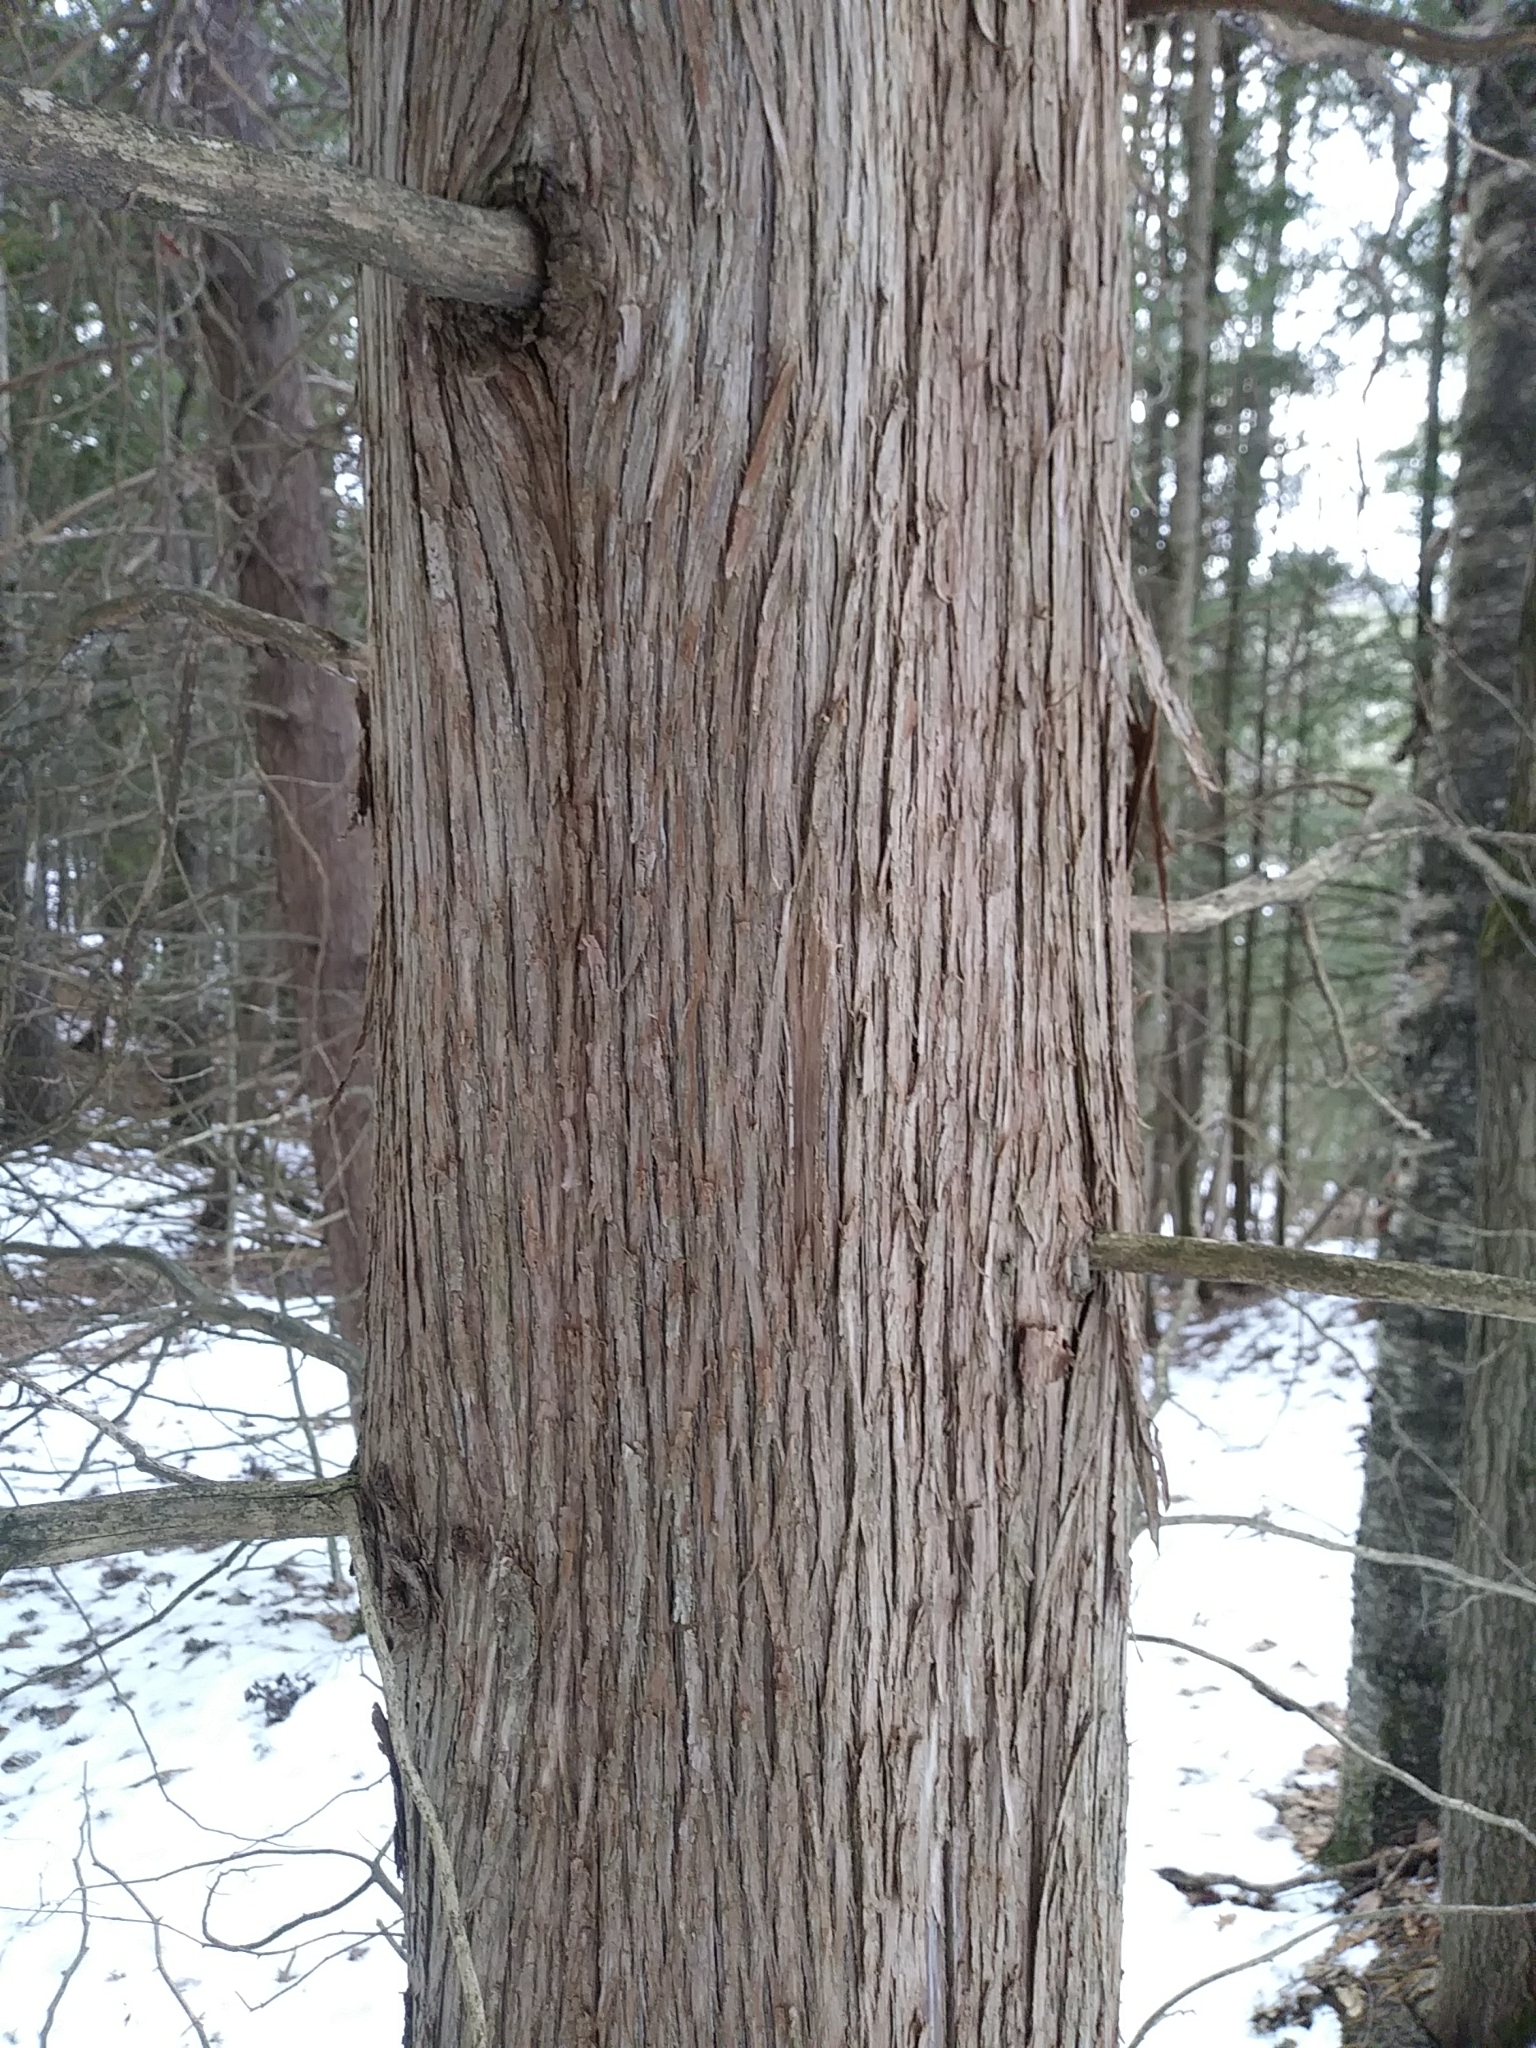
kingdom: Plantae
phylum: Tracheophyta
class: Pinopsida
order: Pinales
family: Cupressaceae
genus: Thuja
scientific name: Thuja occidentalis
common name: Northern white-cedar
